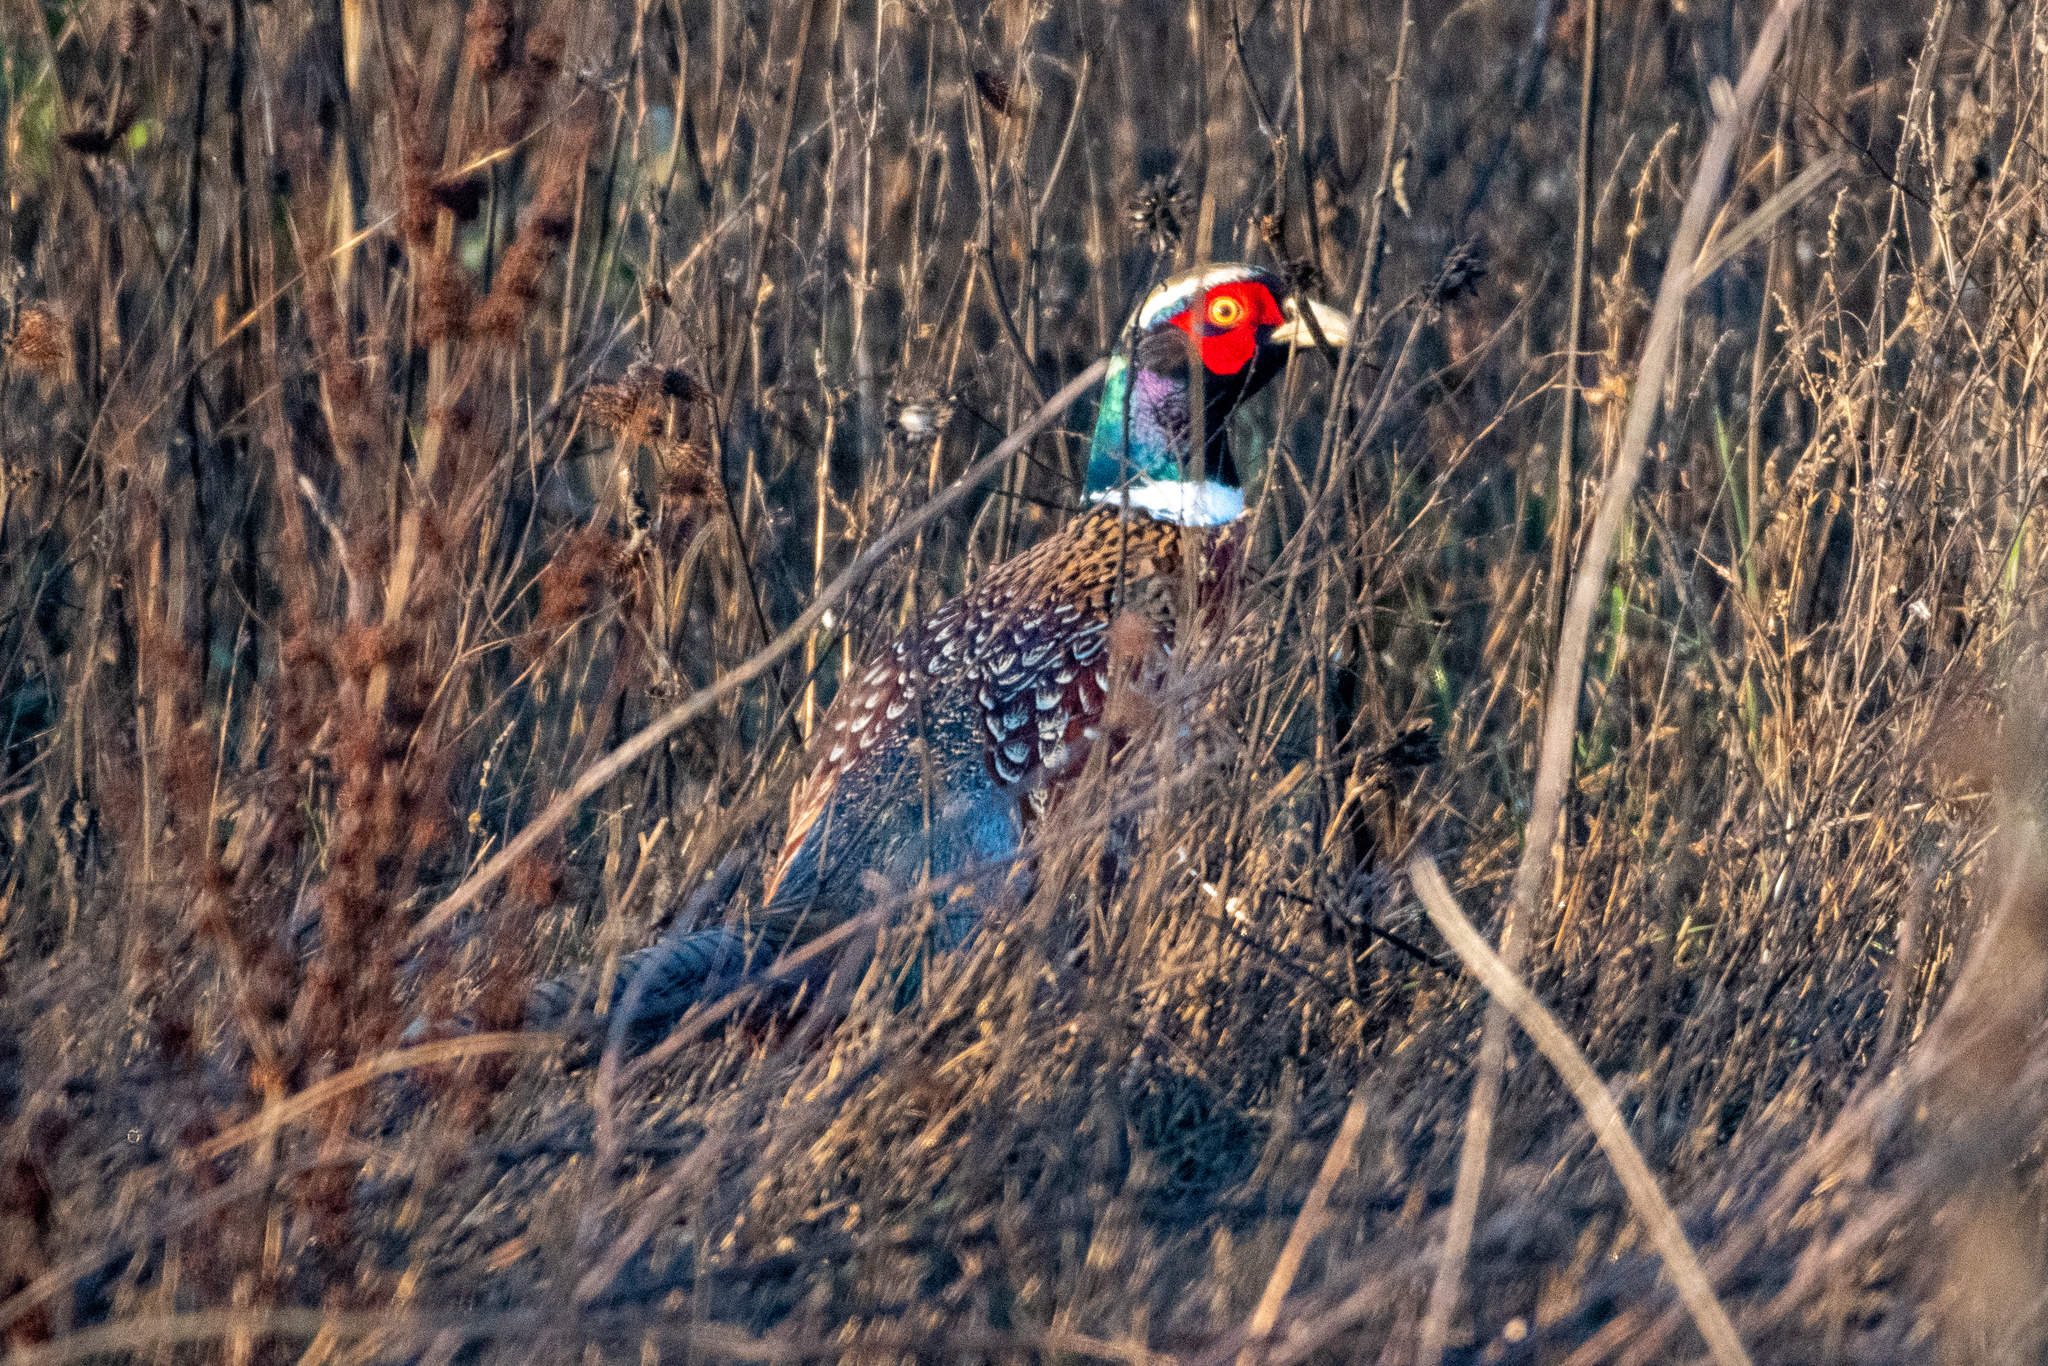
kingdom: Animalia
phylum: Chordata
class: Aves
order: Galliformes
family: Phasianidae
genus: Phasianus
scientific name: Phasianus colchicus
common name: Common pheasant
